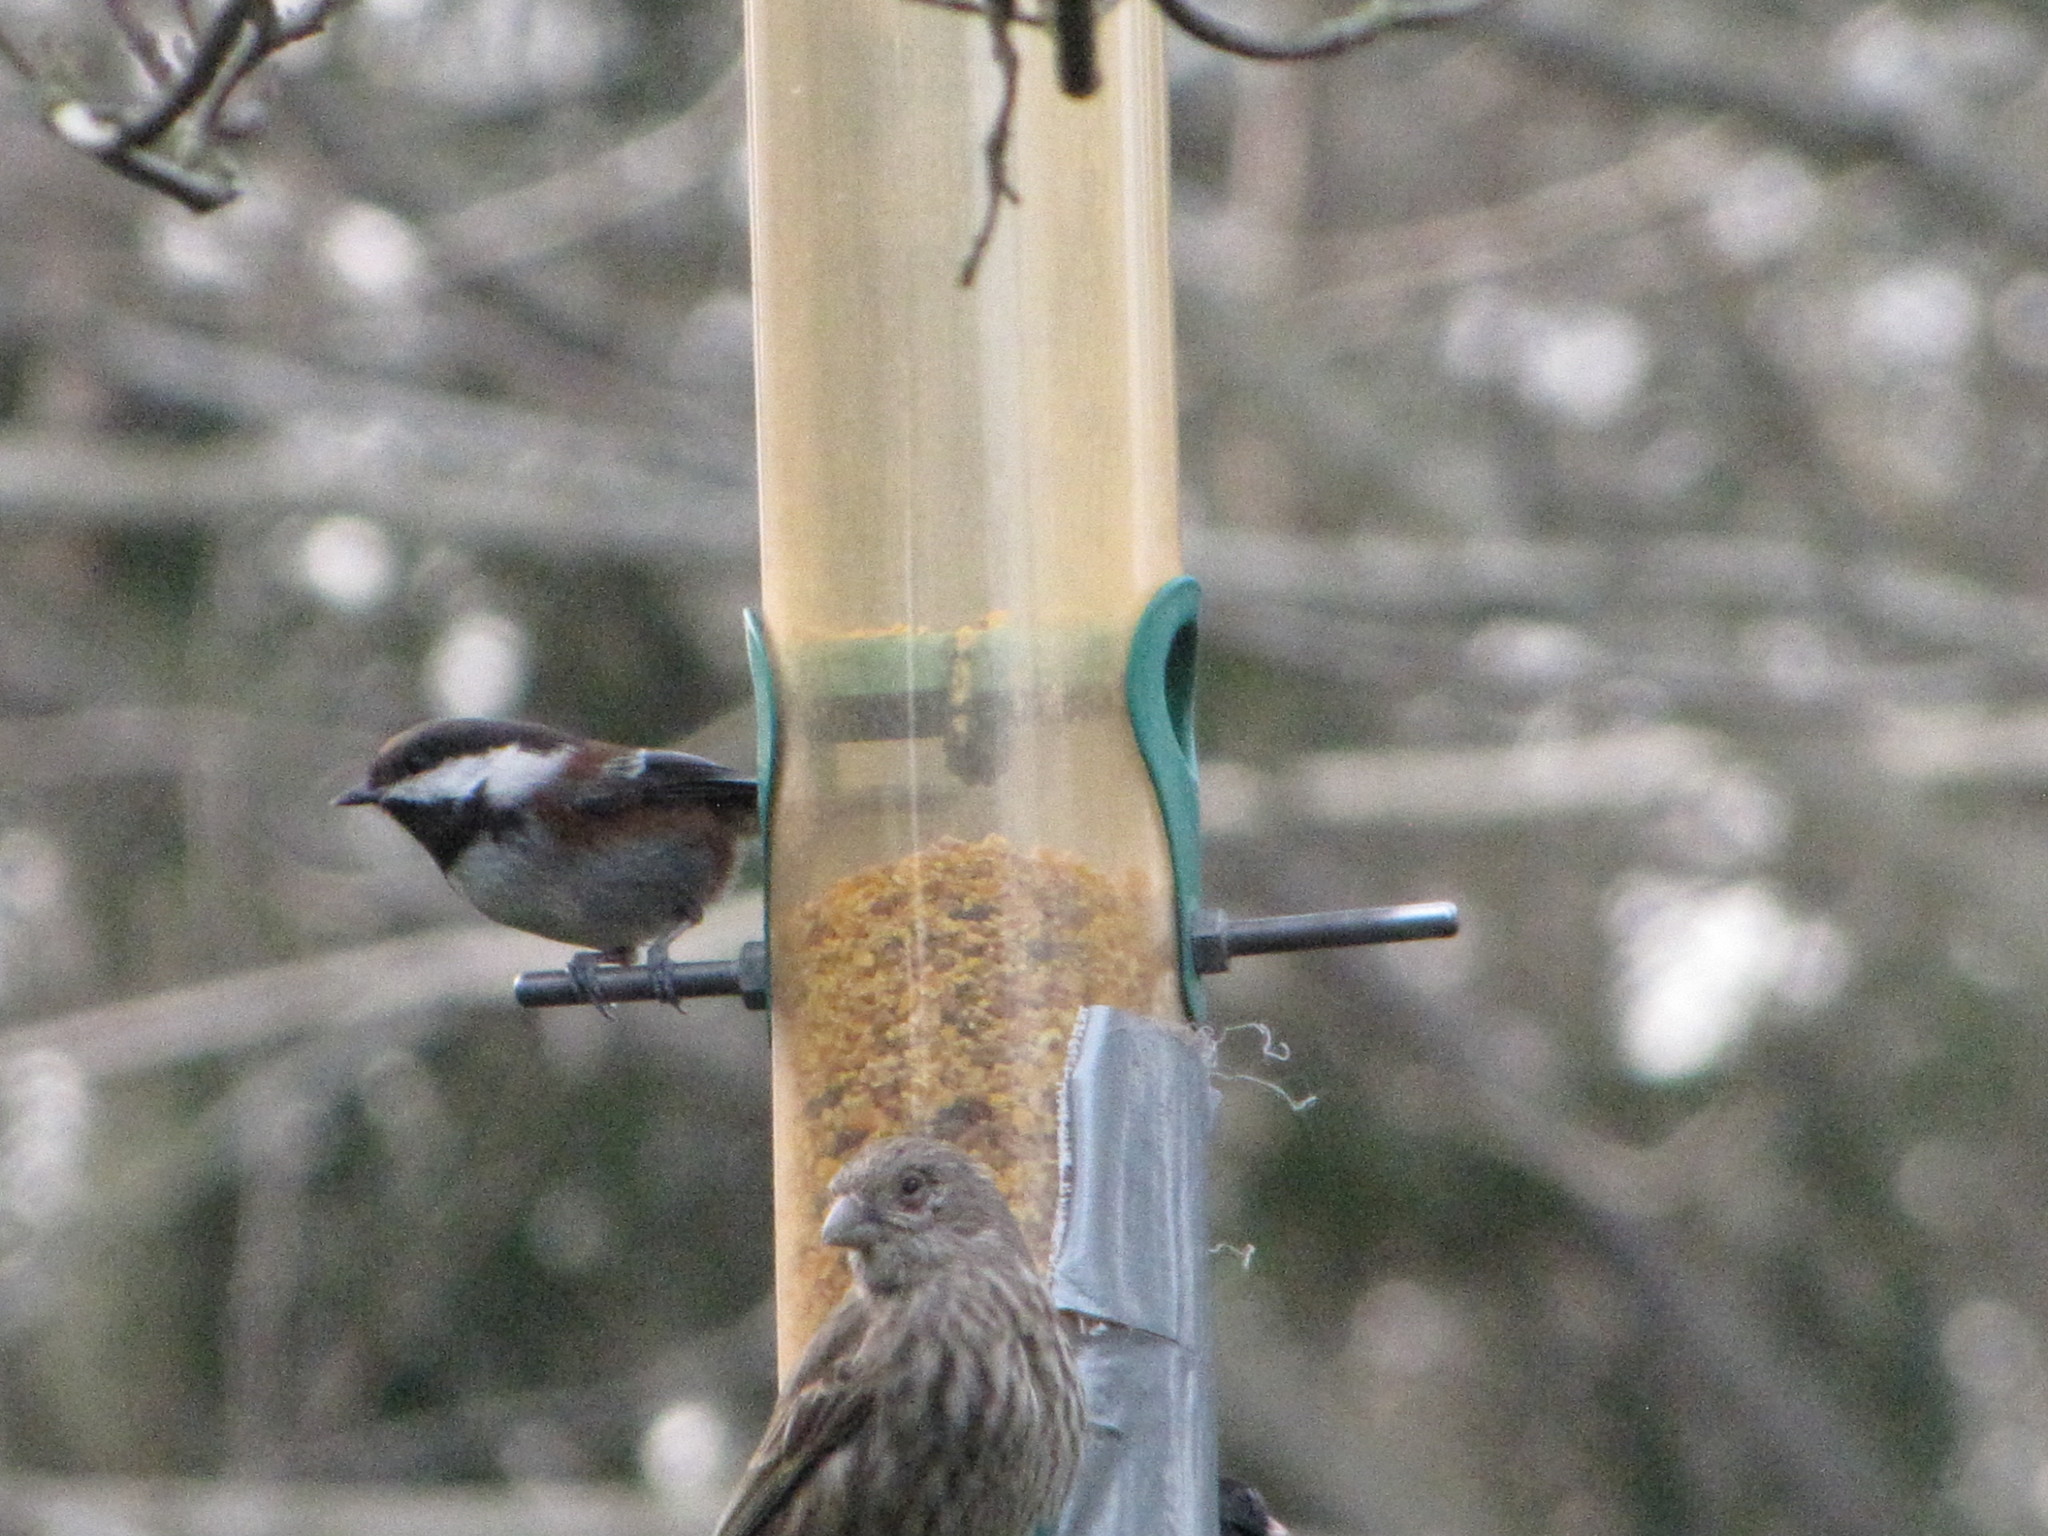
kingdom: Animalia
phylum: Chordata
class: Aves
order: Passeriformes
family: Paridae
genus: Poecile
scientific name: Poecile rufescens
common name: Chestnut-backed chickadee
